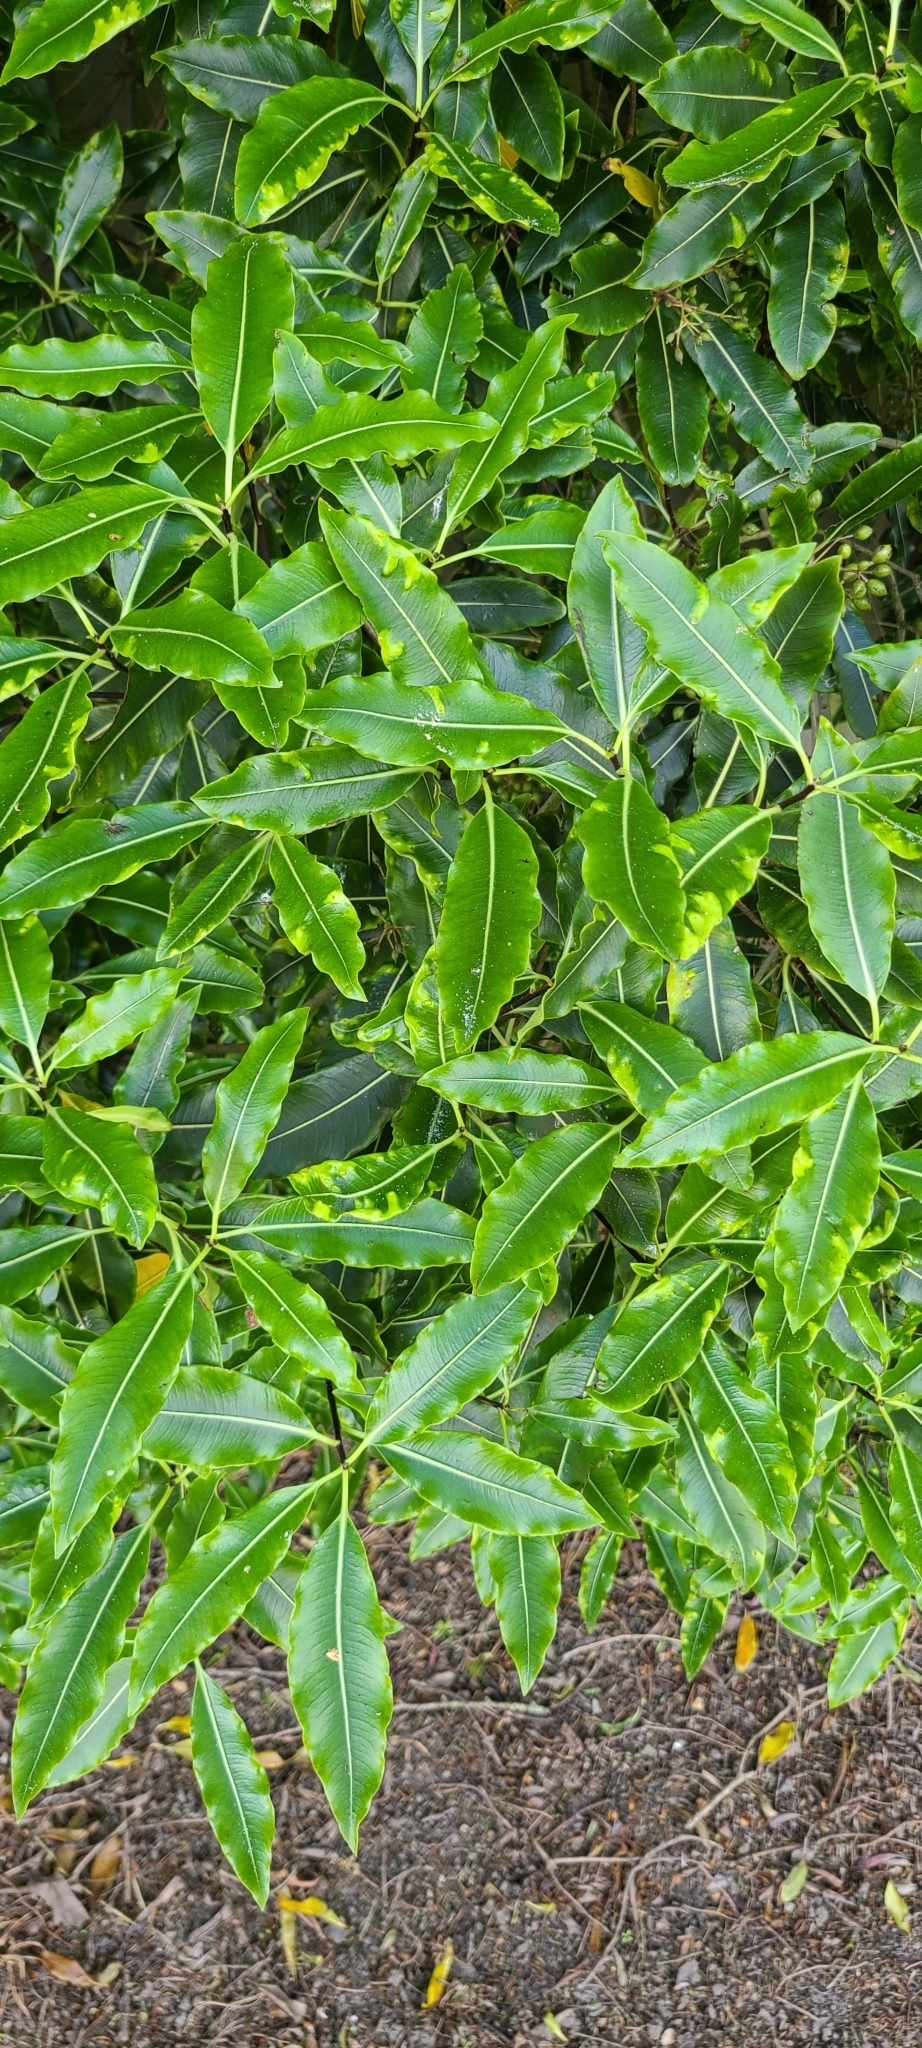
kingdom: Plantae
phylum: Tracheophyta
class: Magnoliopsida
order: Apiales
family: Pittosporaceae
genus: Pittosporum
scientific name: Pittosporum eugenioides
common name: Lemonwood
